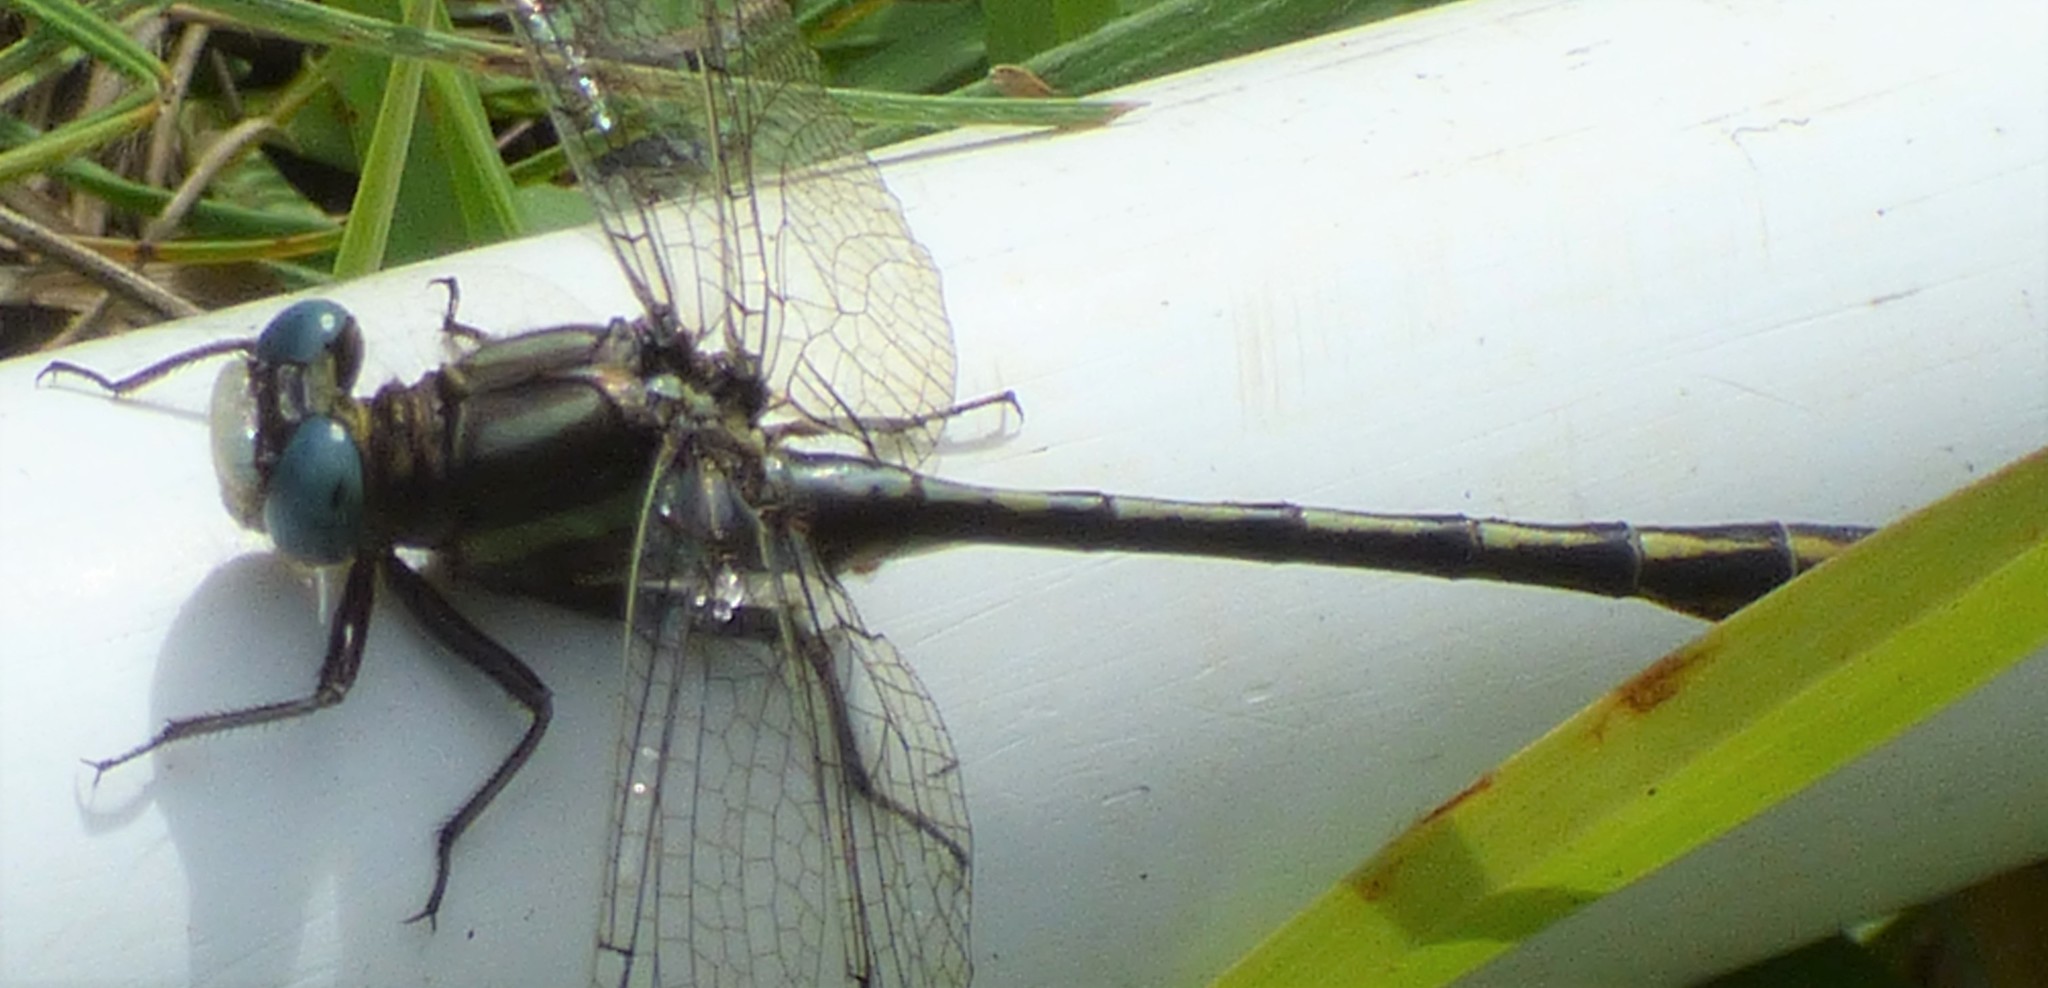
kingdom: Animalia
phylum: Arthropoda
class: Insecta
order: Odonata
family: Gomphidae
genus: Phanogomphus
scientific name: Phanogomphus exilis
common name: Lancet clubtail
